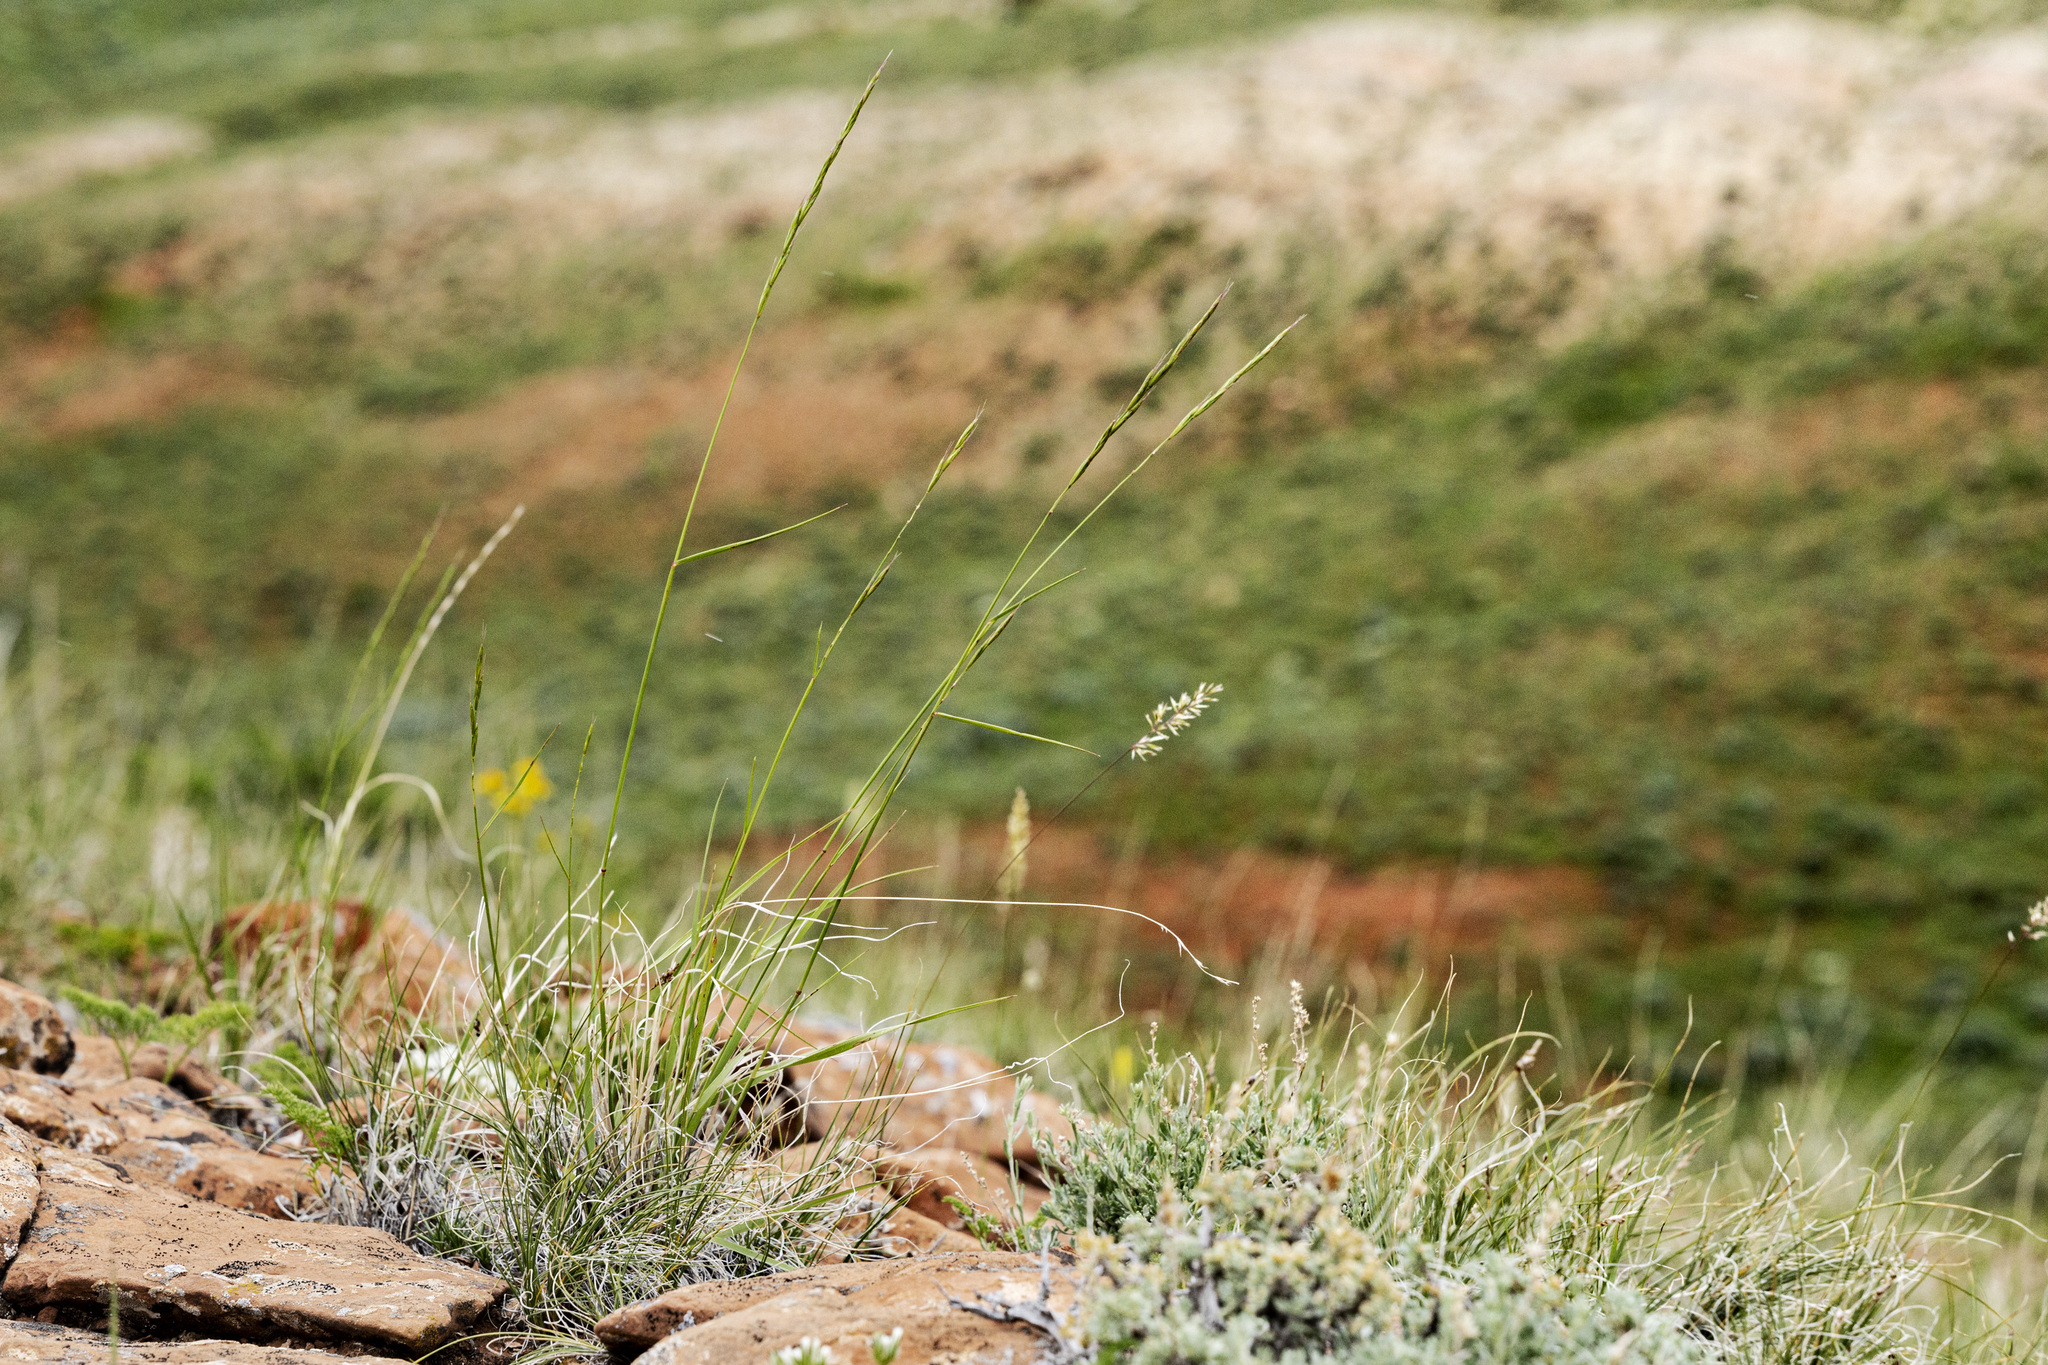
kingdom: Plantae
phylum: Tracheophyta
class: Liliopsida
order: Poales
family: Poaceae
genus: Pseudoroegneria
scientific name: Pseudoroegneria spicata
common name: Bluebunch wheatgrass
